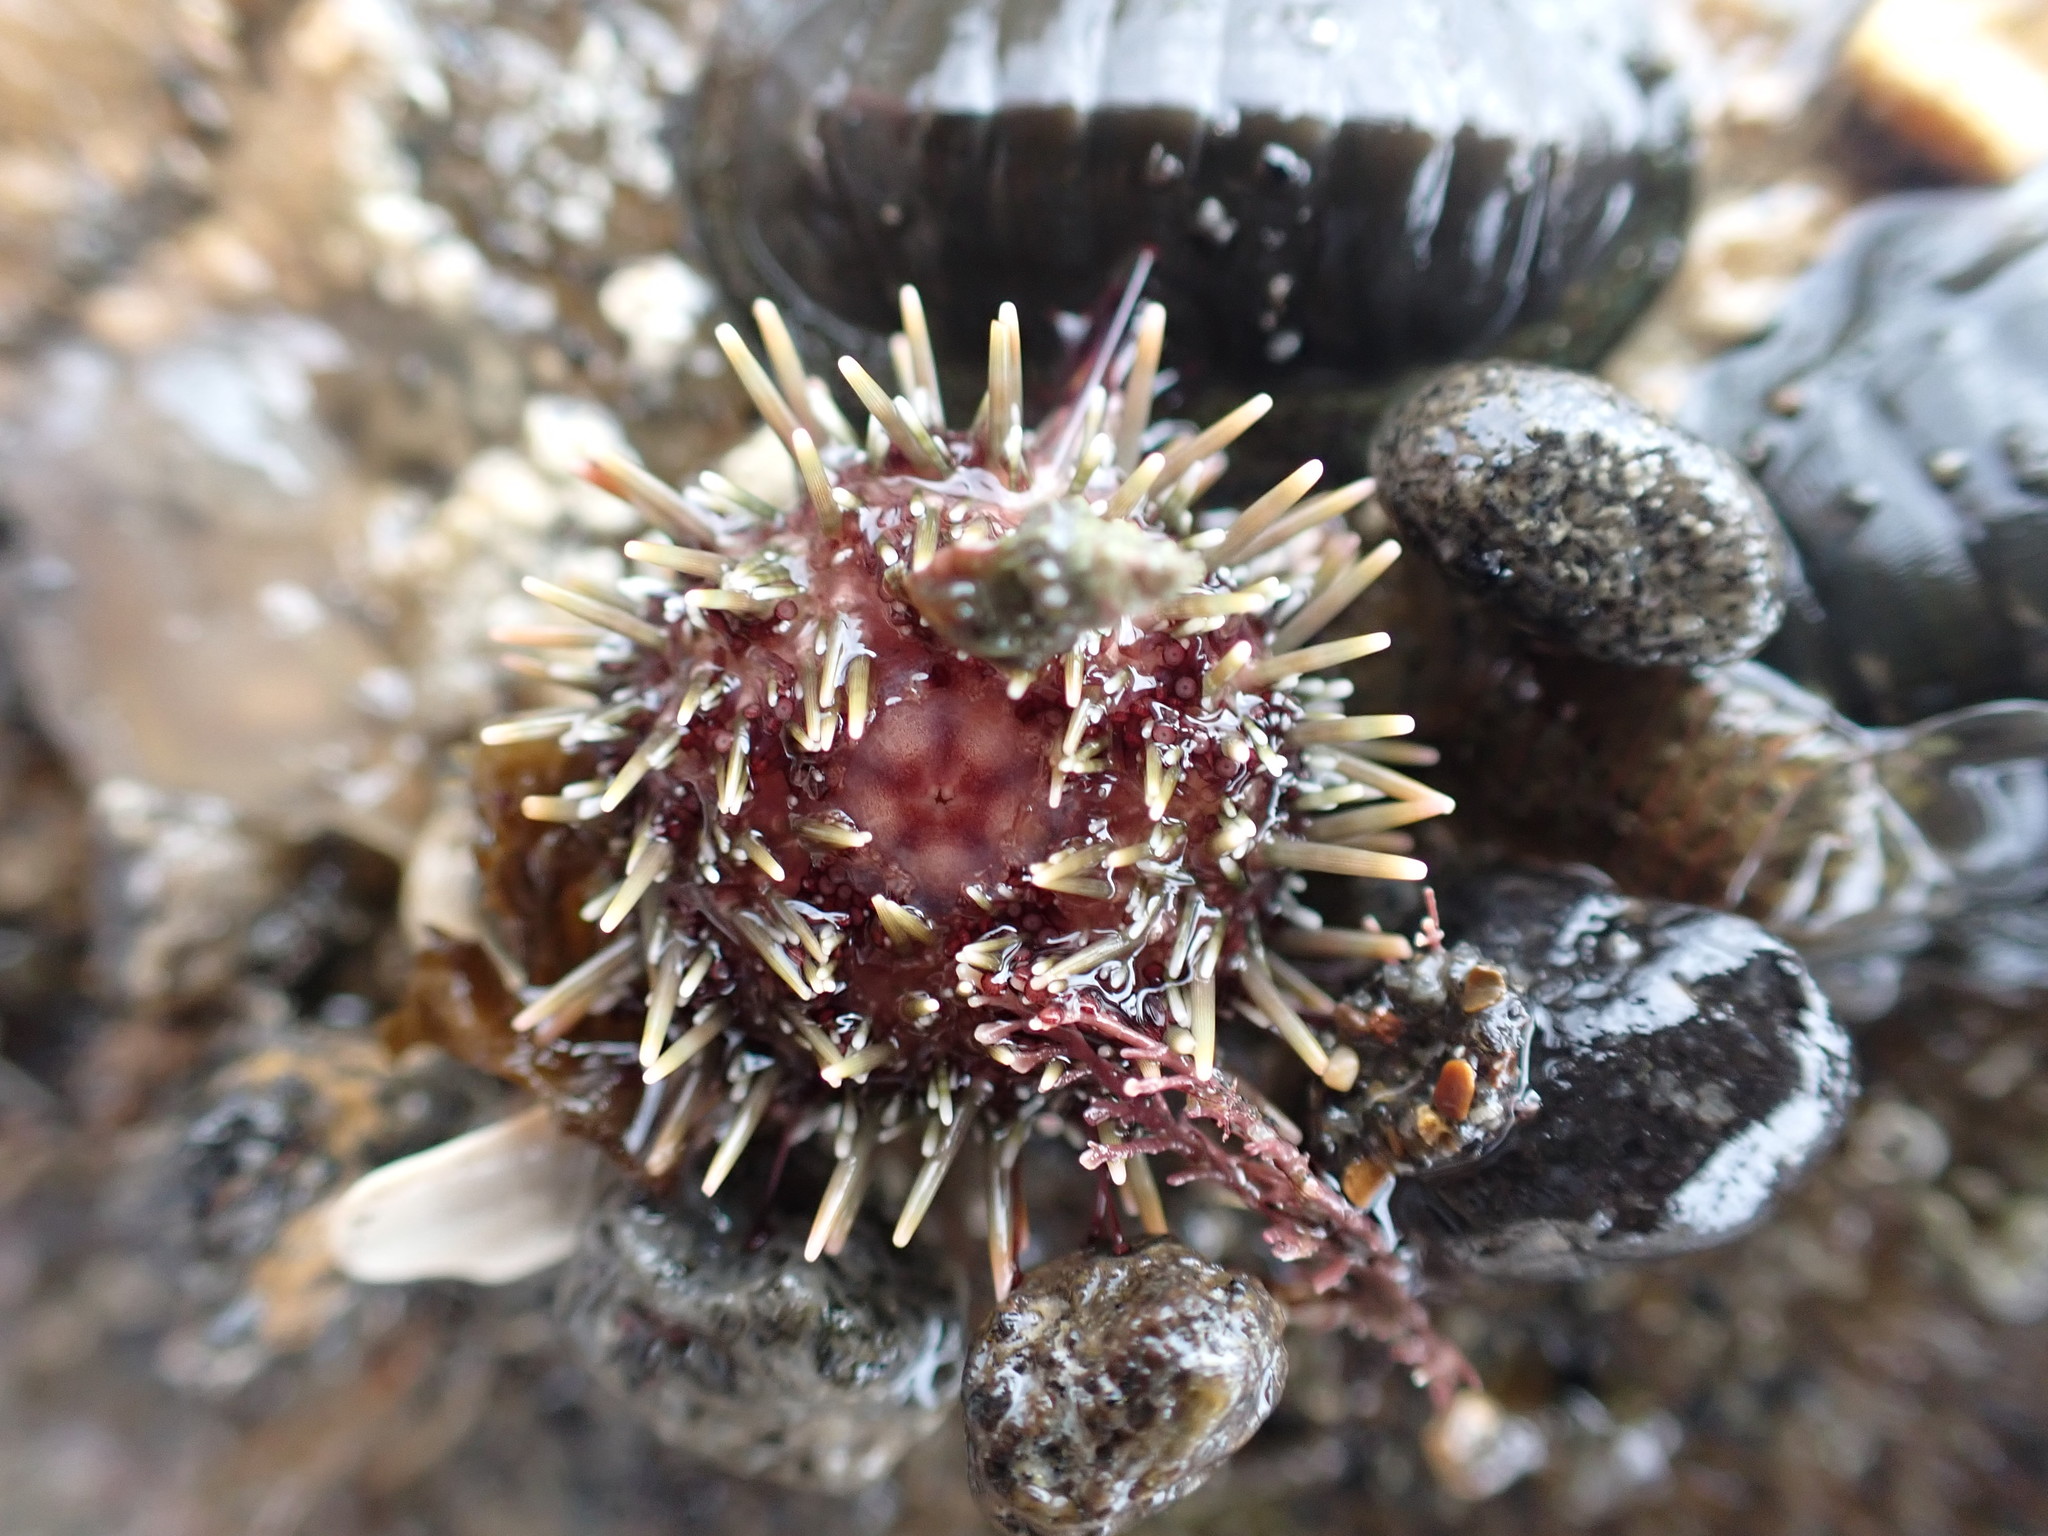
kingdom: Animalia
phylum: Echinodermata
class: Echinoidea
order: Camarodonta
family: Echinometridae
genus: Evechinus
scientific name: Evechinus chloroticus
